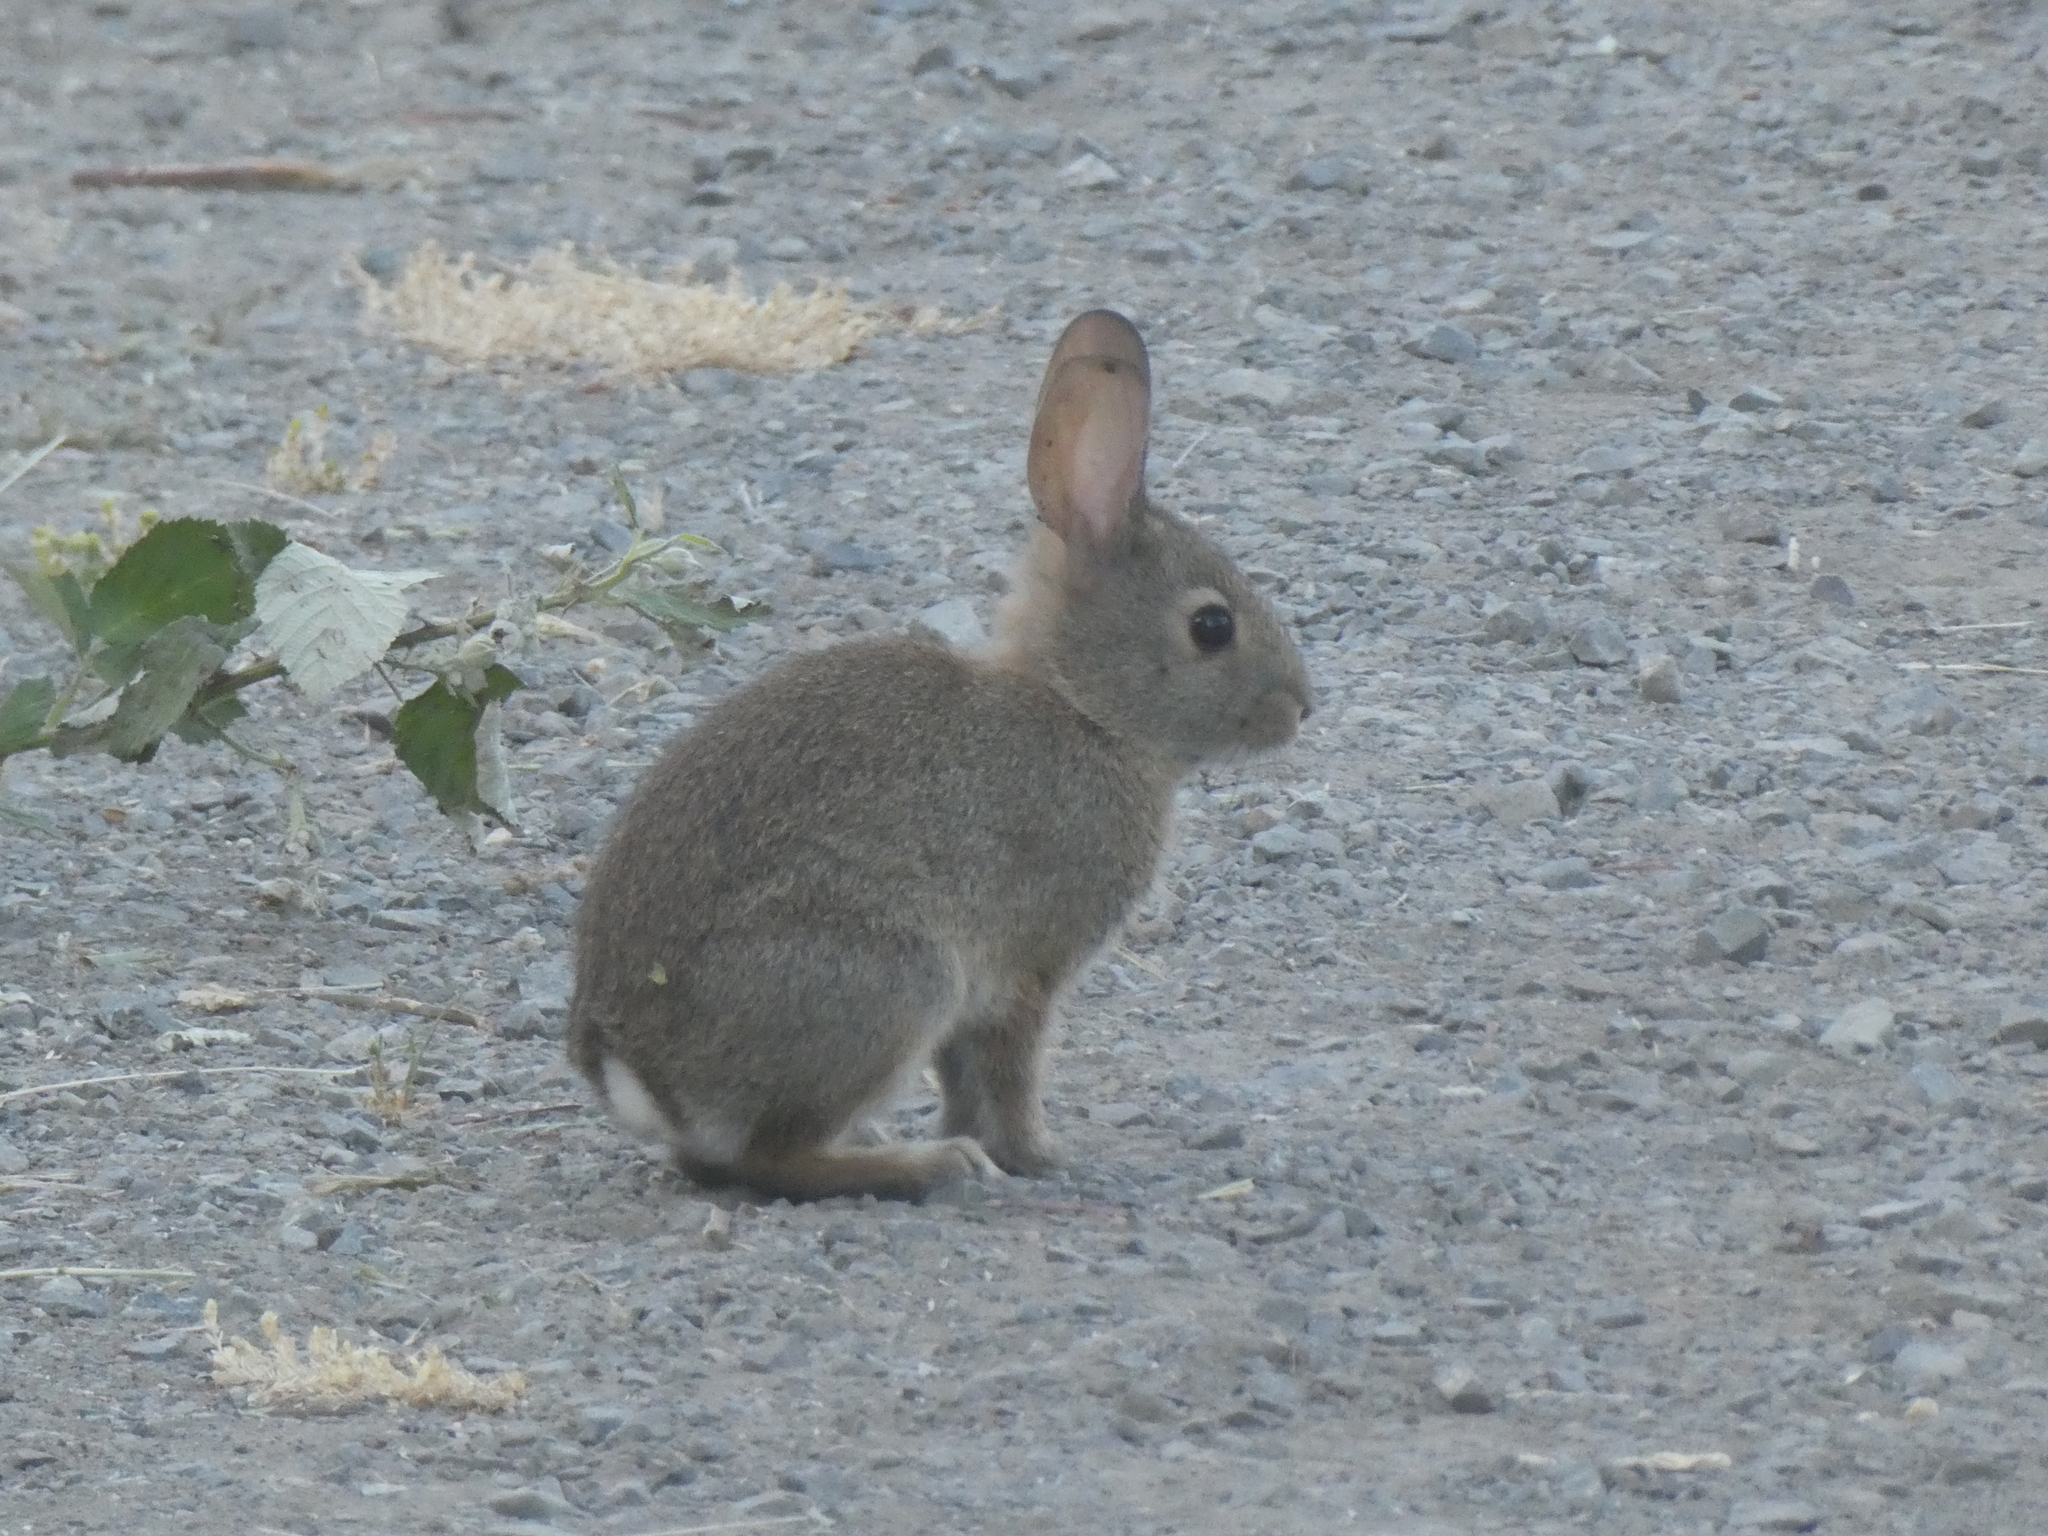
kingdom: Animalia
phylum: Chordata
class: Mammalia
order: Lagomorpha
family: Leporidae
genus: Sylvilagus
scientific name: Sylvilagus bachmani
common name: Brush rabbit
